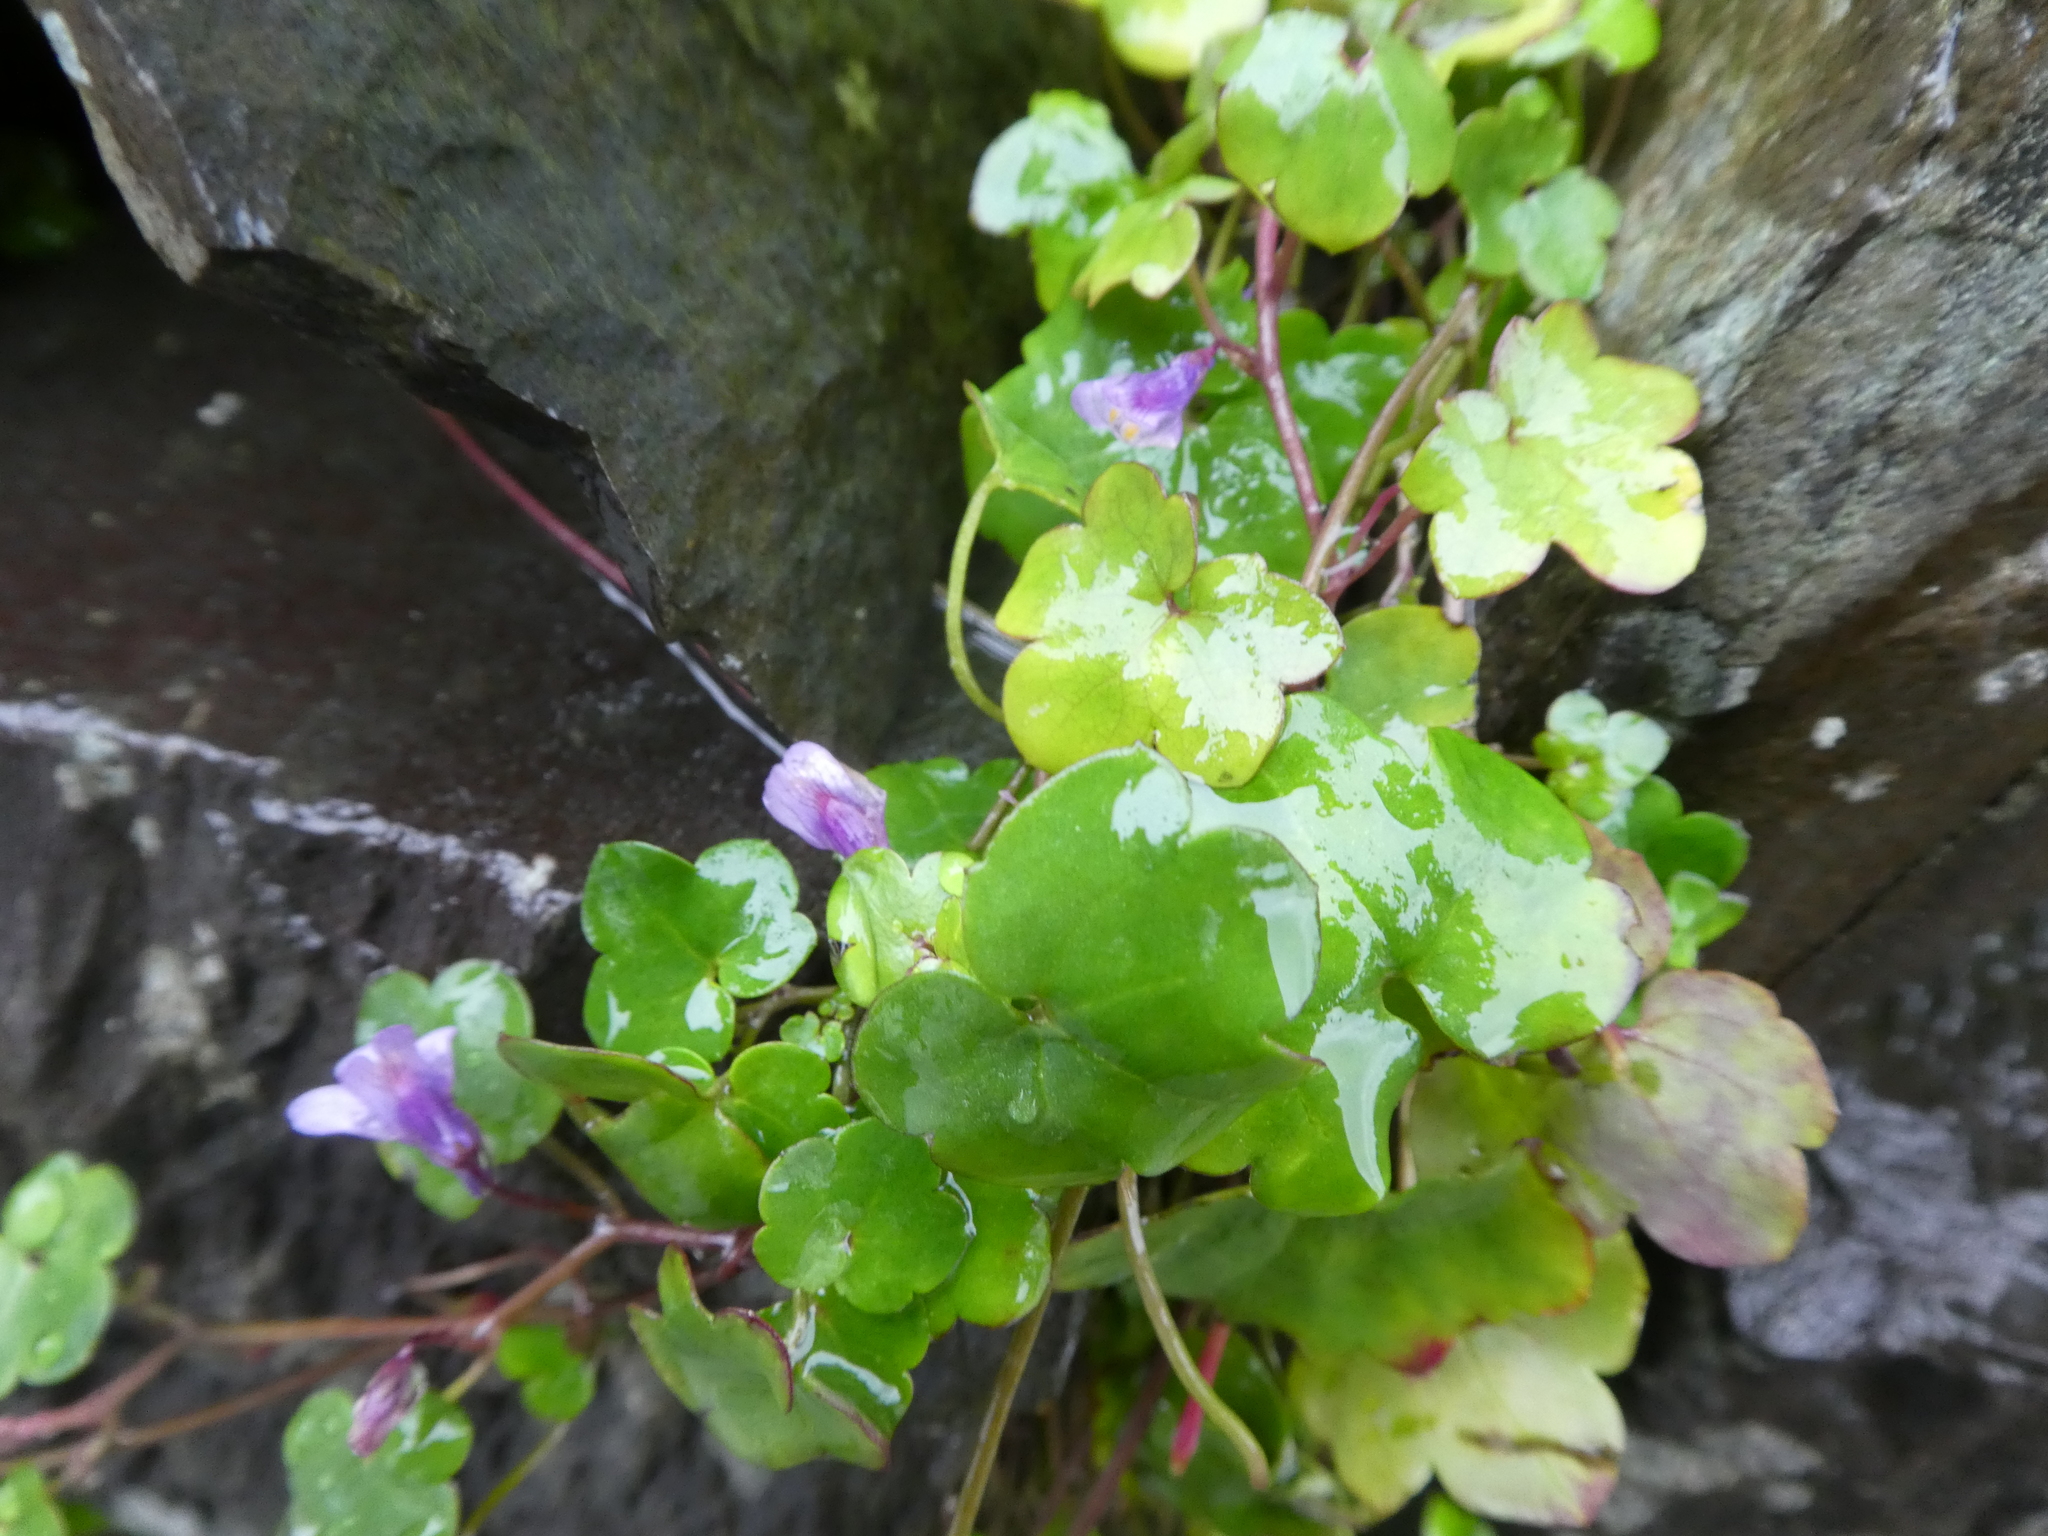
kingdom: Plantae
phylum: Tracheophyta
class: Magnoliopsida
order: Lamiales
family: Plantaginaceae
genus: Cymbalaria
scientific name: Cymbalaria muralis
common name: Ivy-leaved toadflax
